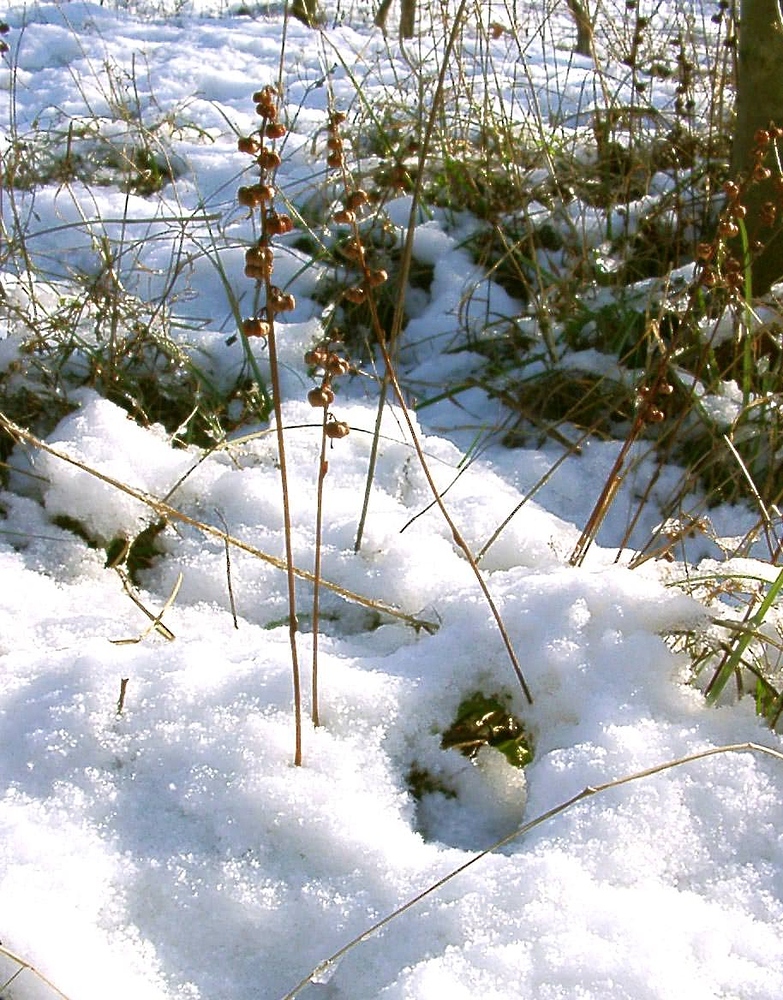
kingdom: Plantae
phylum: Tracheophyta
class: Magnoliopsida
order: Ericales
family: Ericaceae
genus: Pyrola
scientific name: Pyrola rotundifolia
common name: Round-leaved wintergreen
